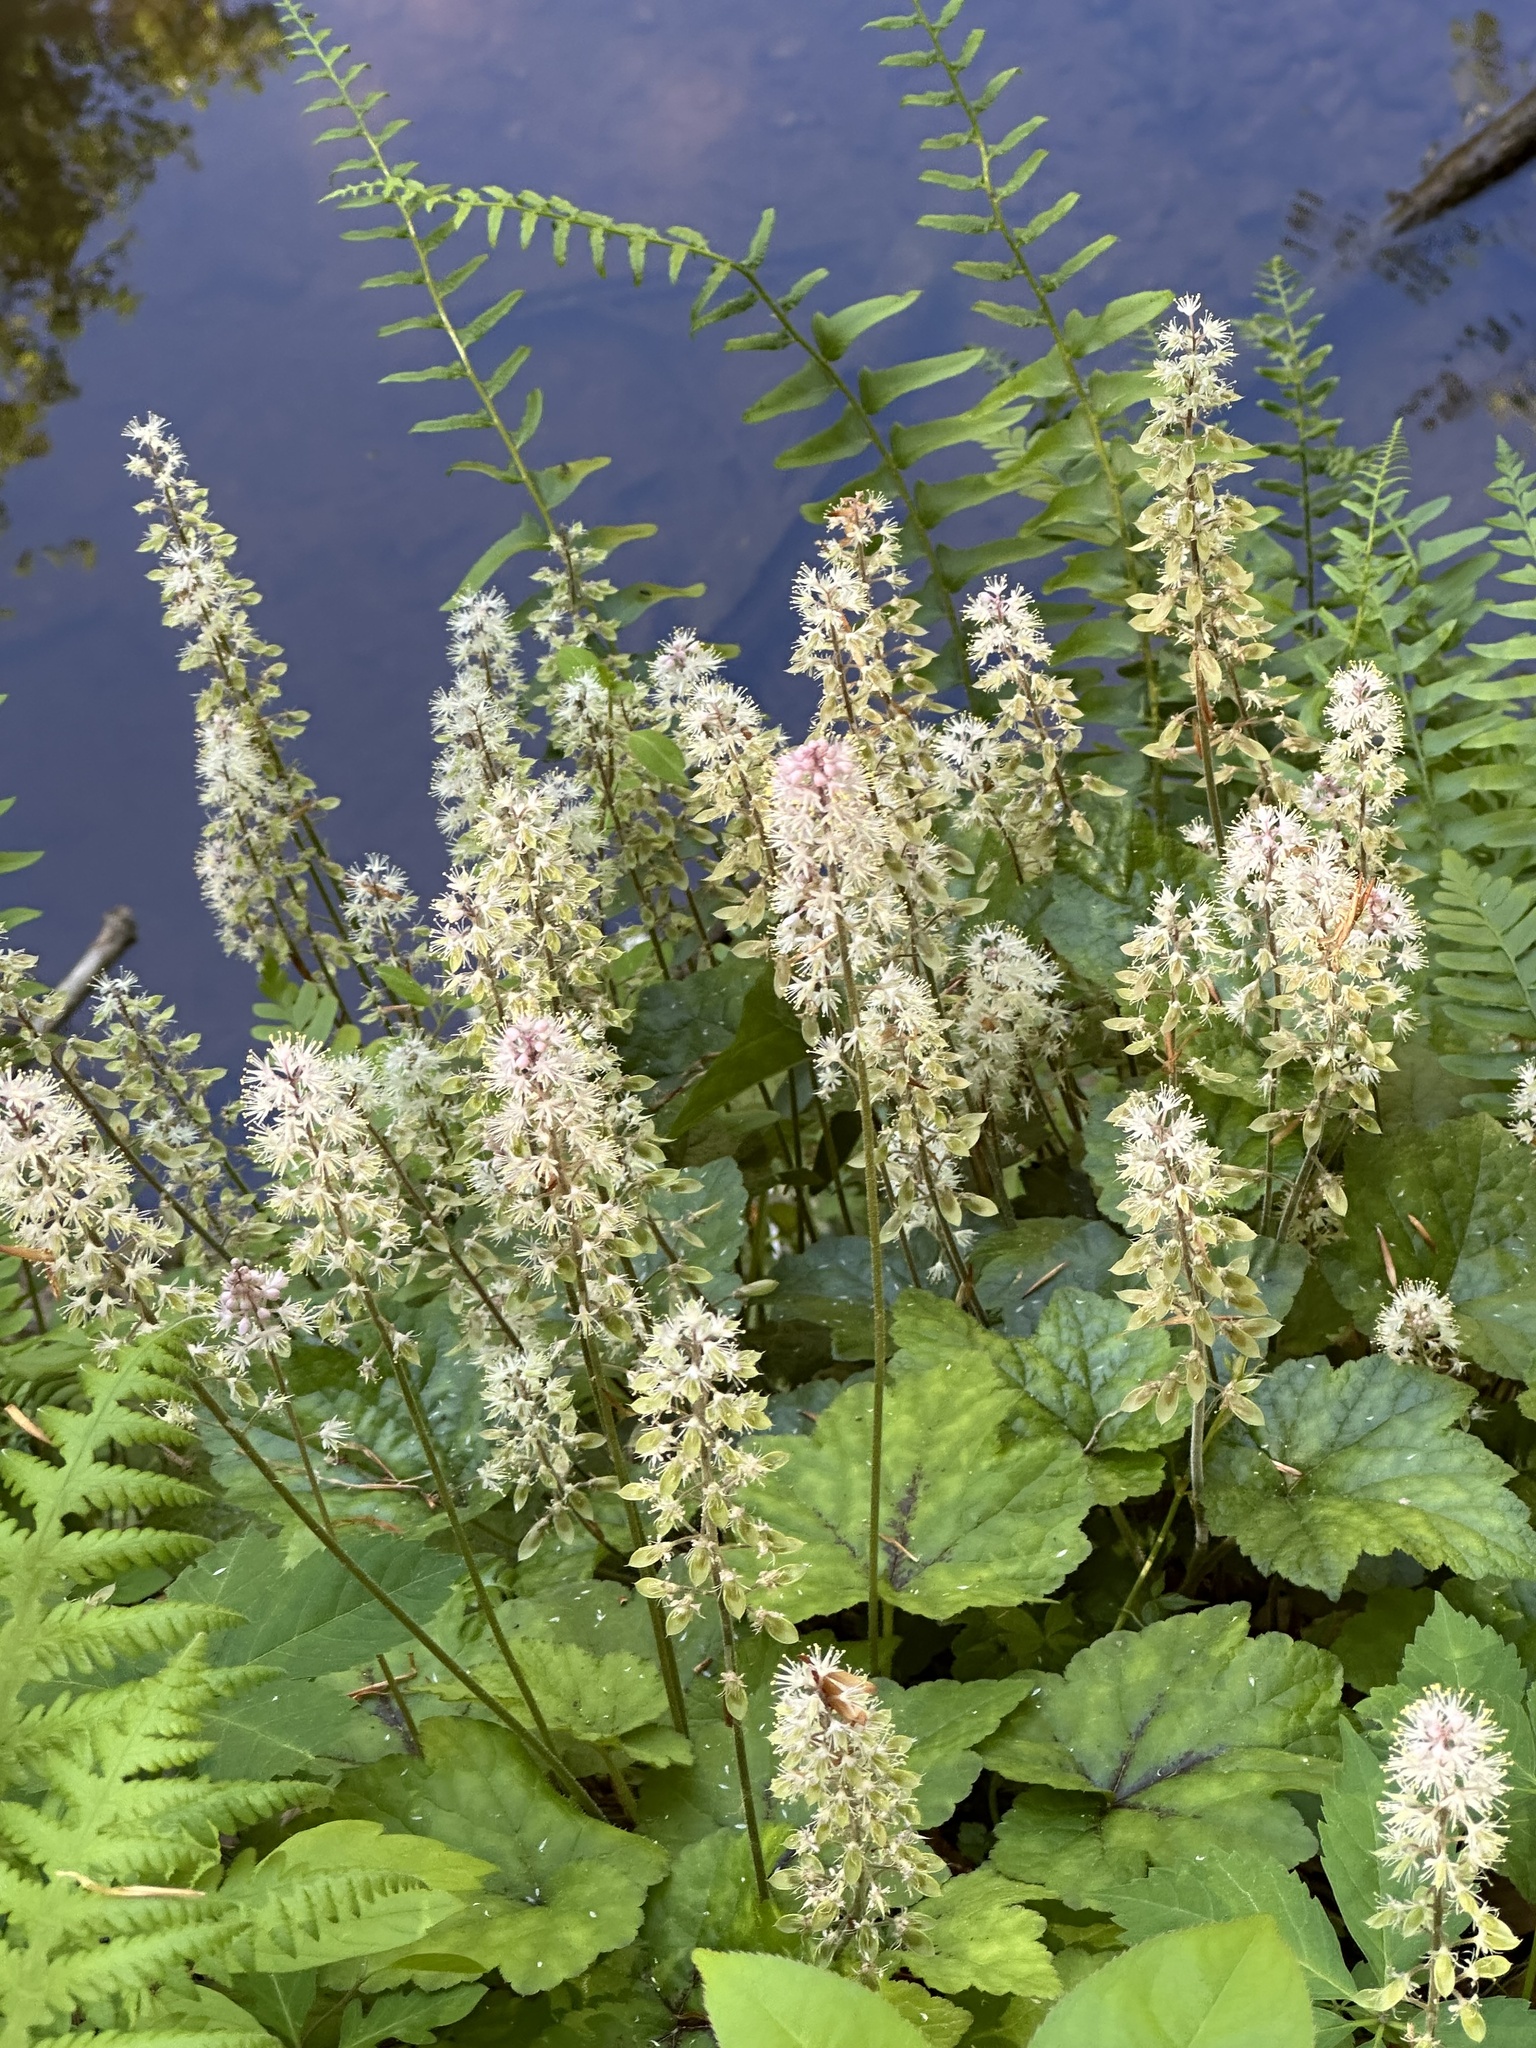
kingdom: Plantae
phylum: Tracheophyta
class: Magnoliopsida
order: Saxifragales
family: Saxifragaceae
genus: Tiarella
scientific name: Tiarella cordifolia
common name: Foamflower
